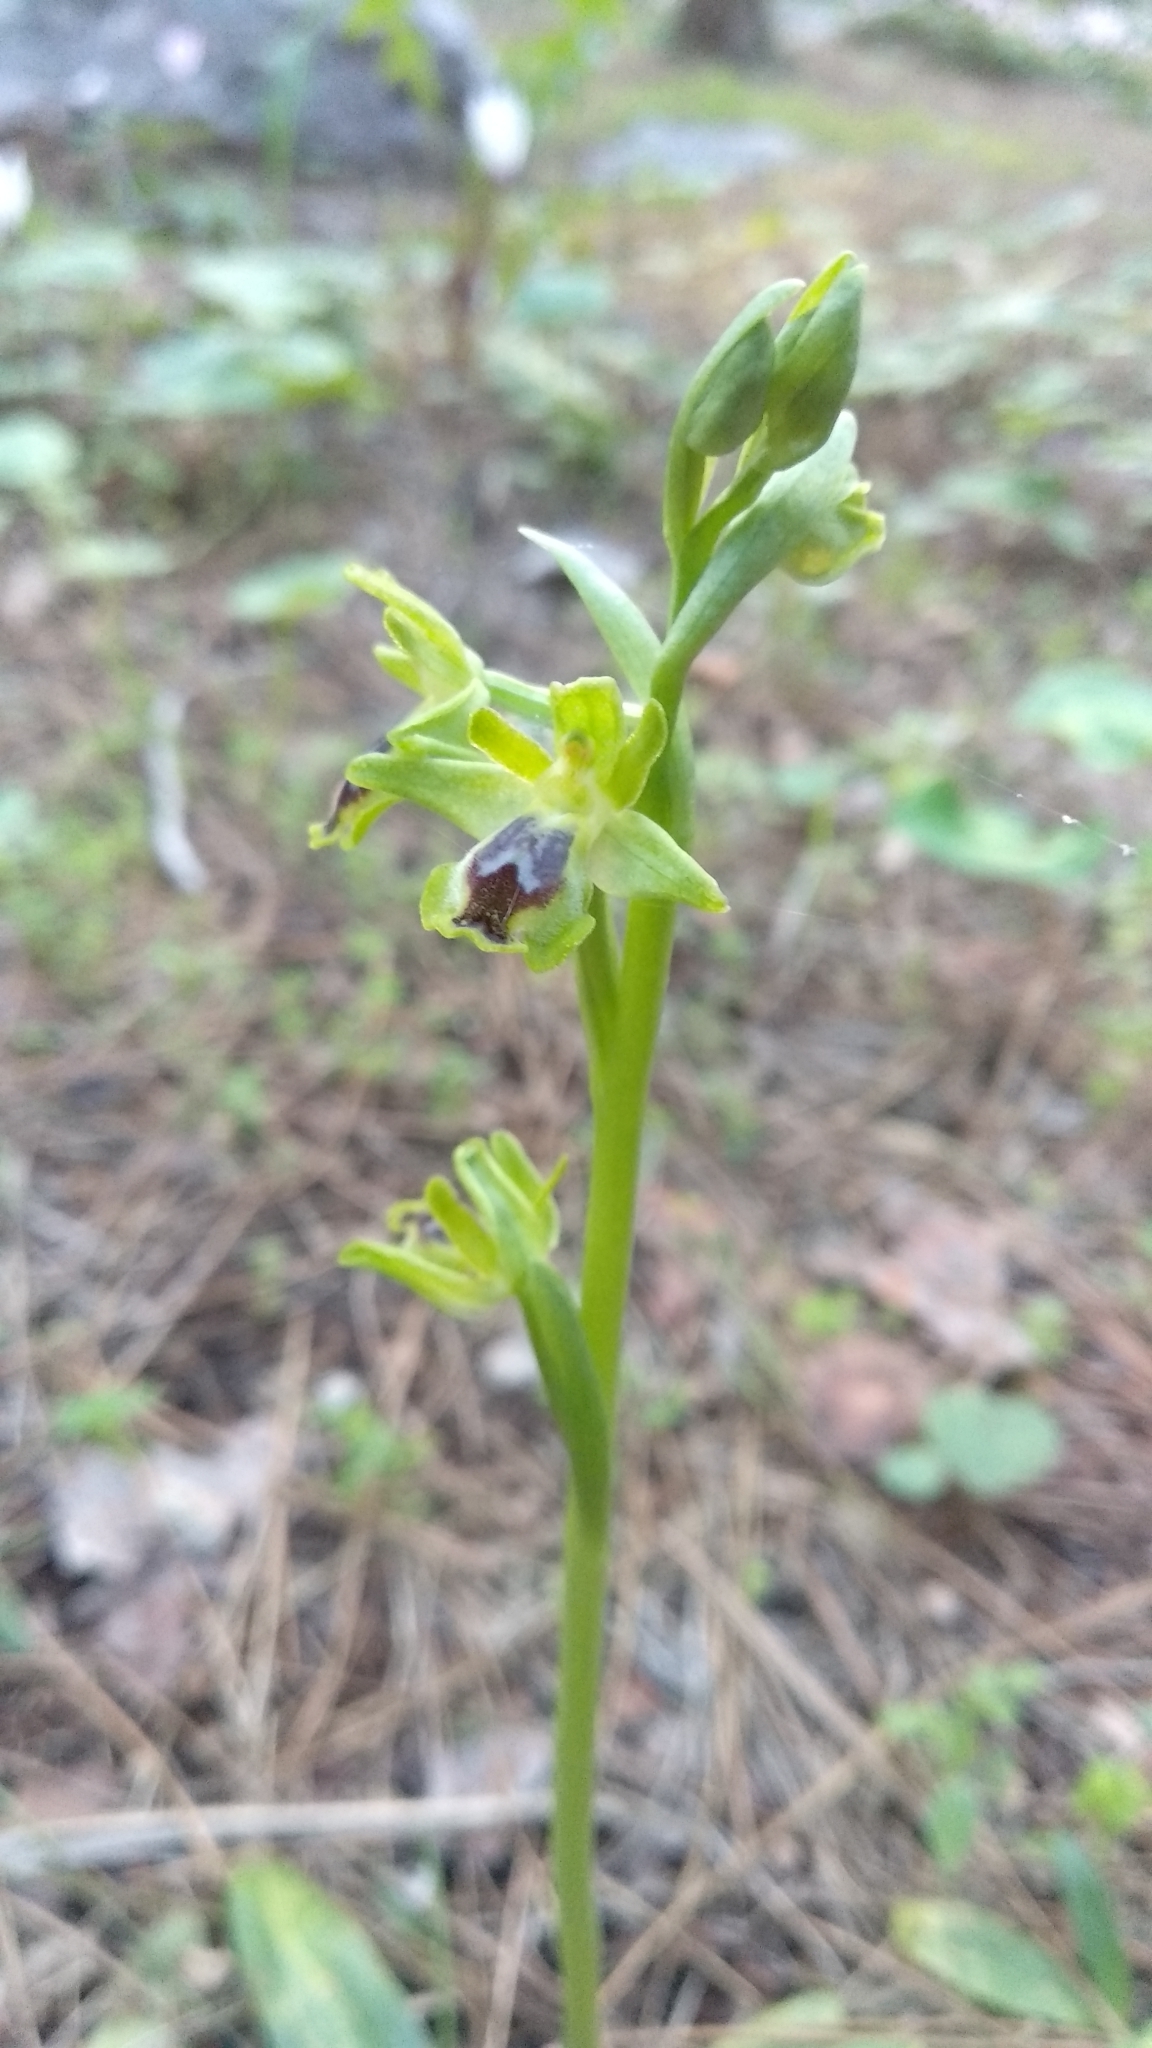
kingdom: Plantae
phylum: Tracheophyta
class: Liliopsida
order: Asparagales
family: Orchidaceae
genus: Ophrys
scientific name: Ophrys lutea
